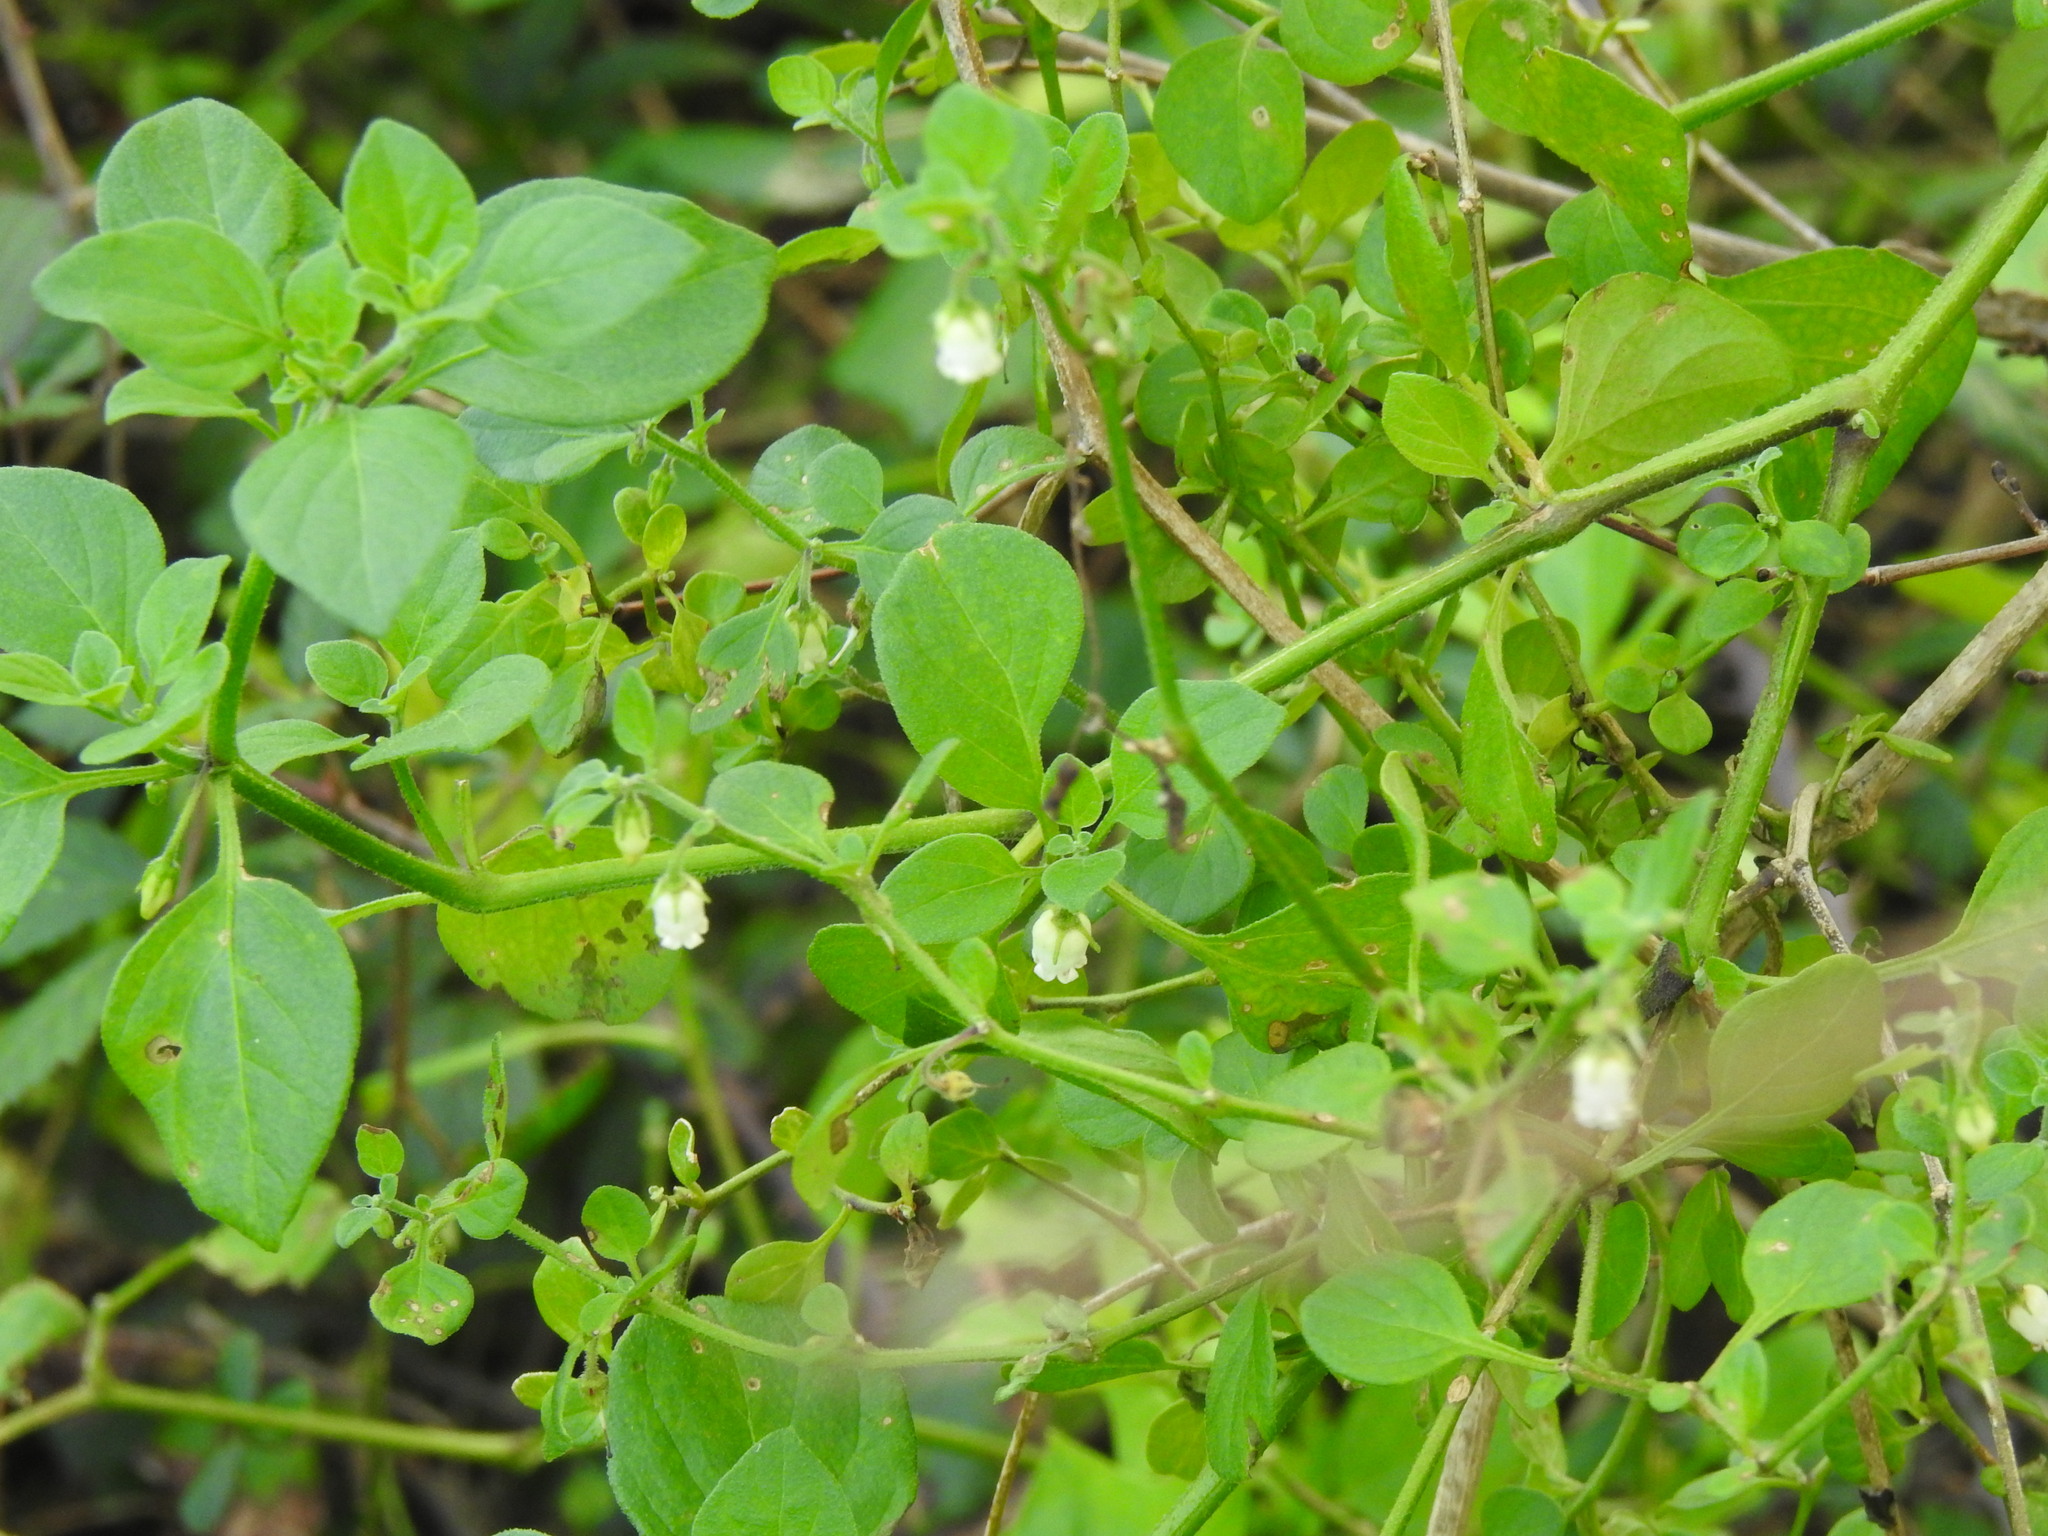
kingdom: Plantae
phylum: Tracheophyta
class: Magnoliopsida
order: Solanales
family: Solanaceae
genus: Salpichroa
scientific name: Salpichroa origanifolia
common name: Lily-of-the-valley-vine
